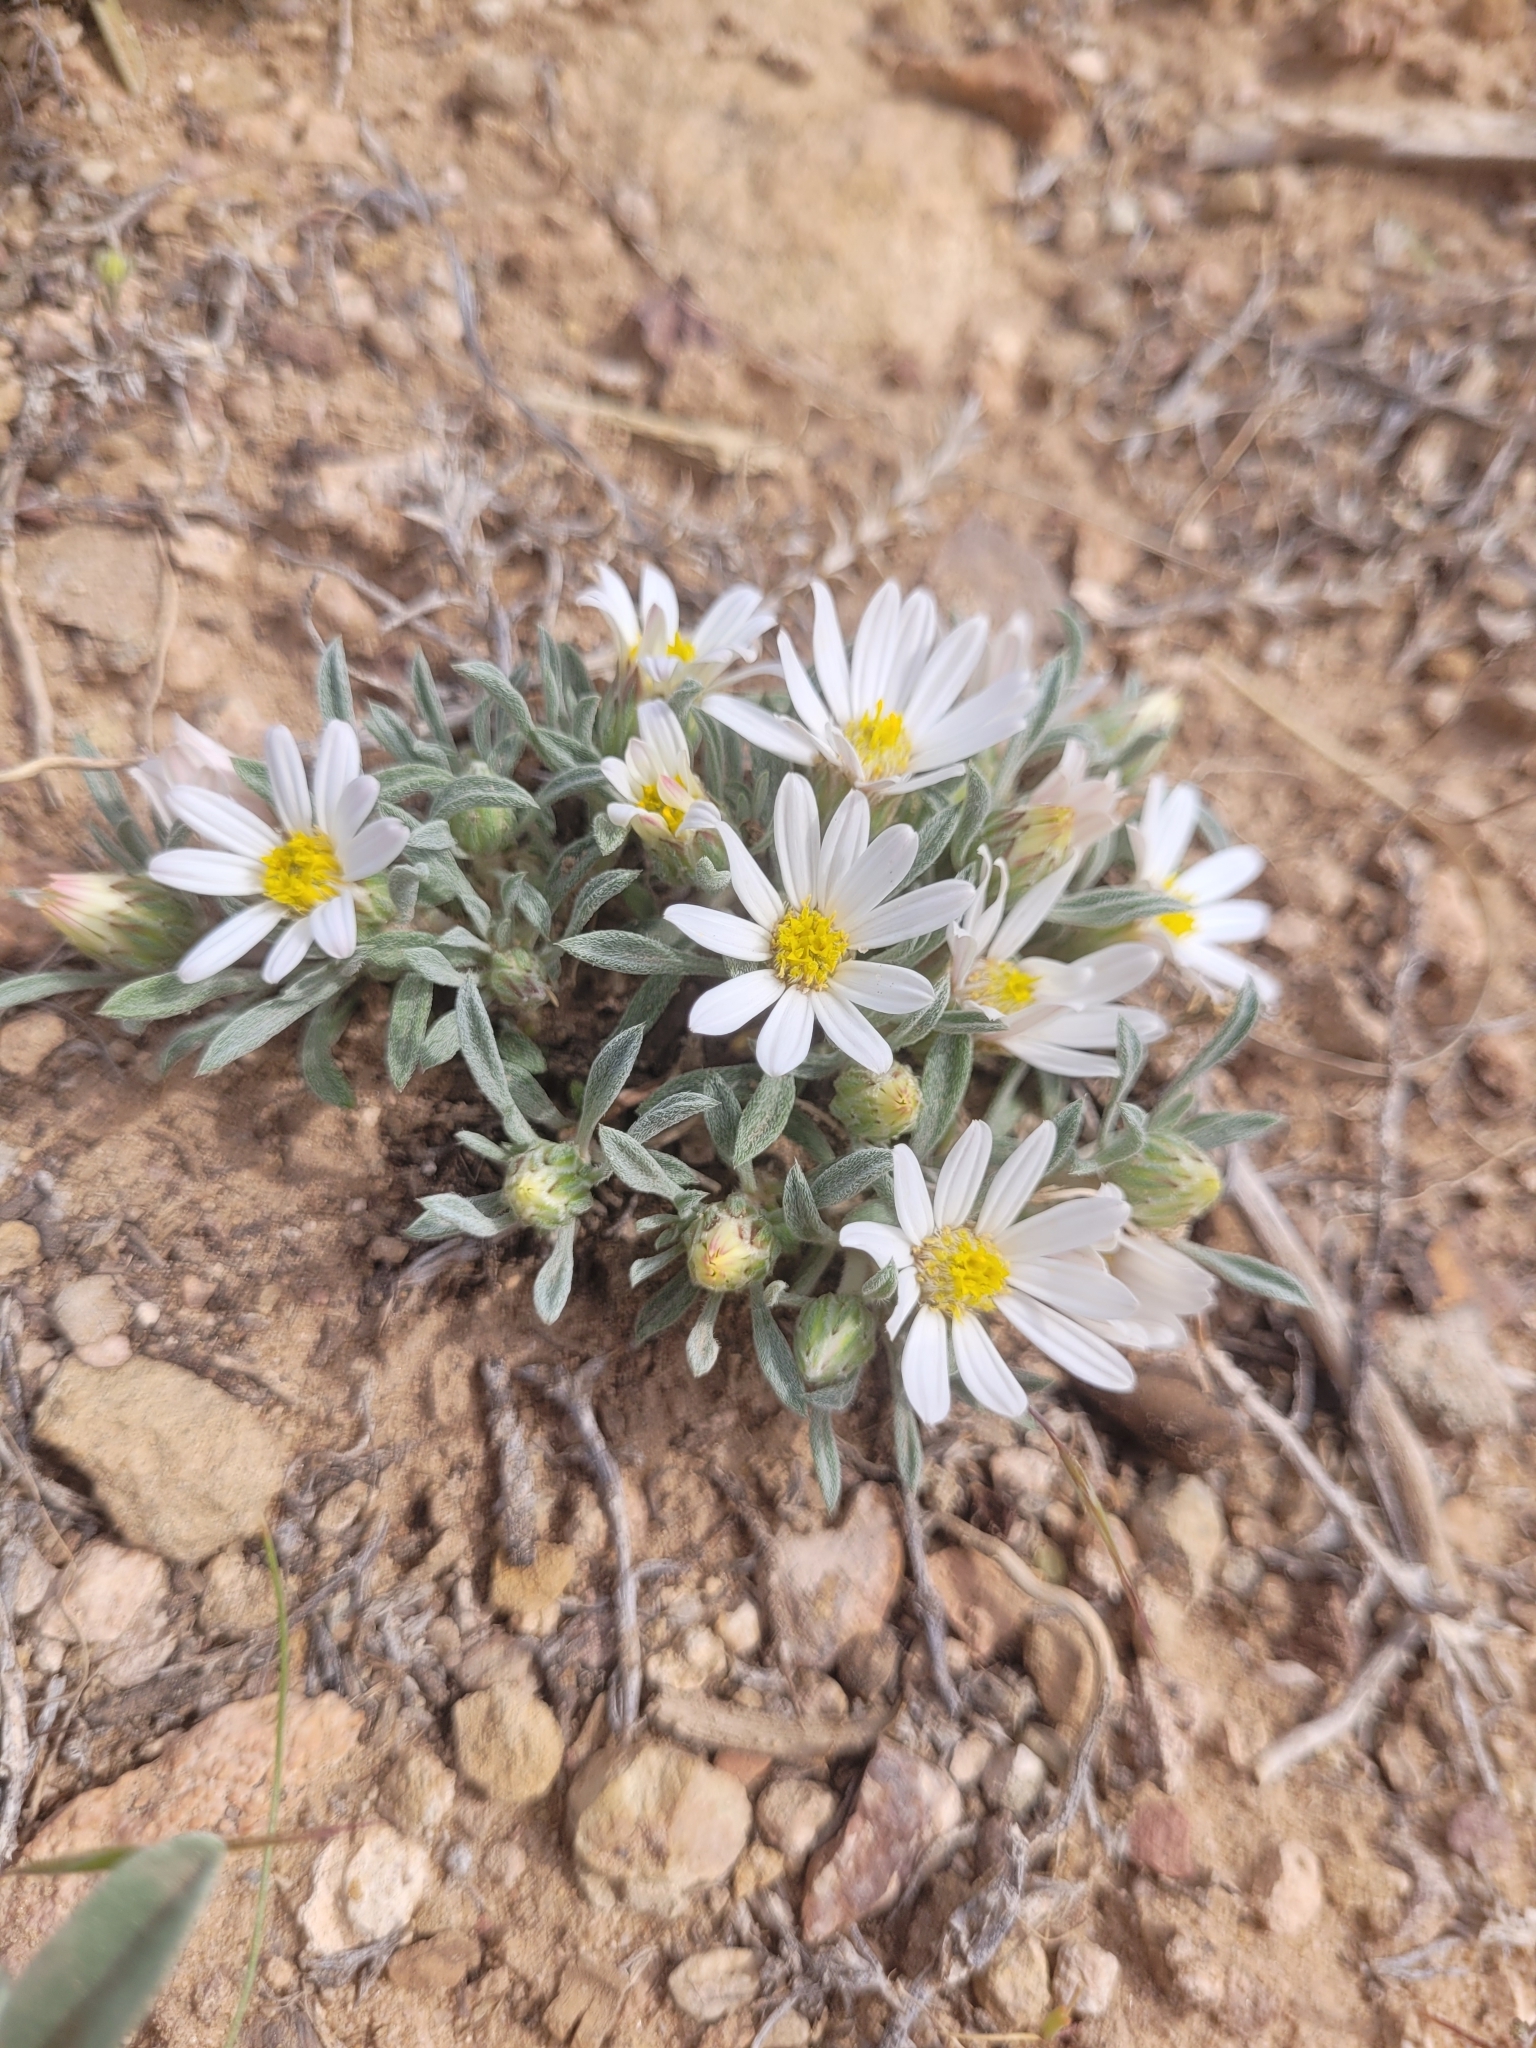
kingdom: Plantae
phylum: Tracheophyta
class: Magnoliopsida
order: Asterales
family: Asteraceae
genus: Townsendia
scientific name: Townsendia incana
